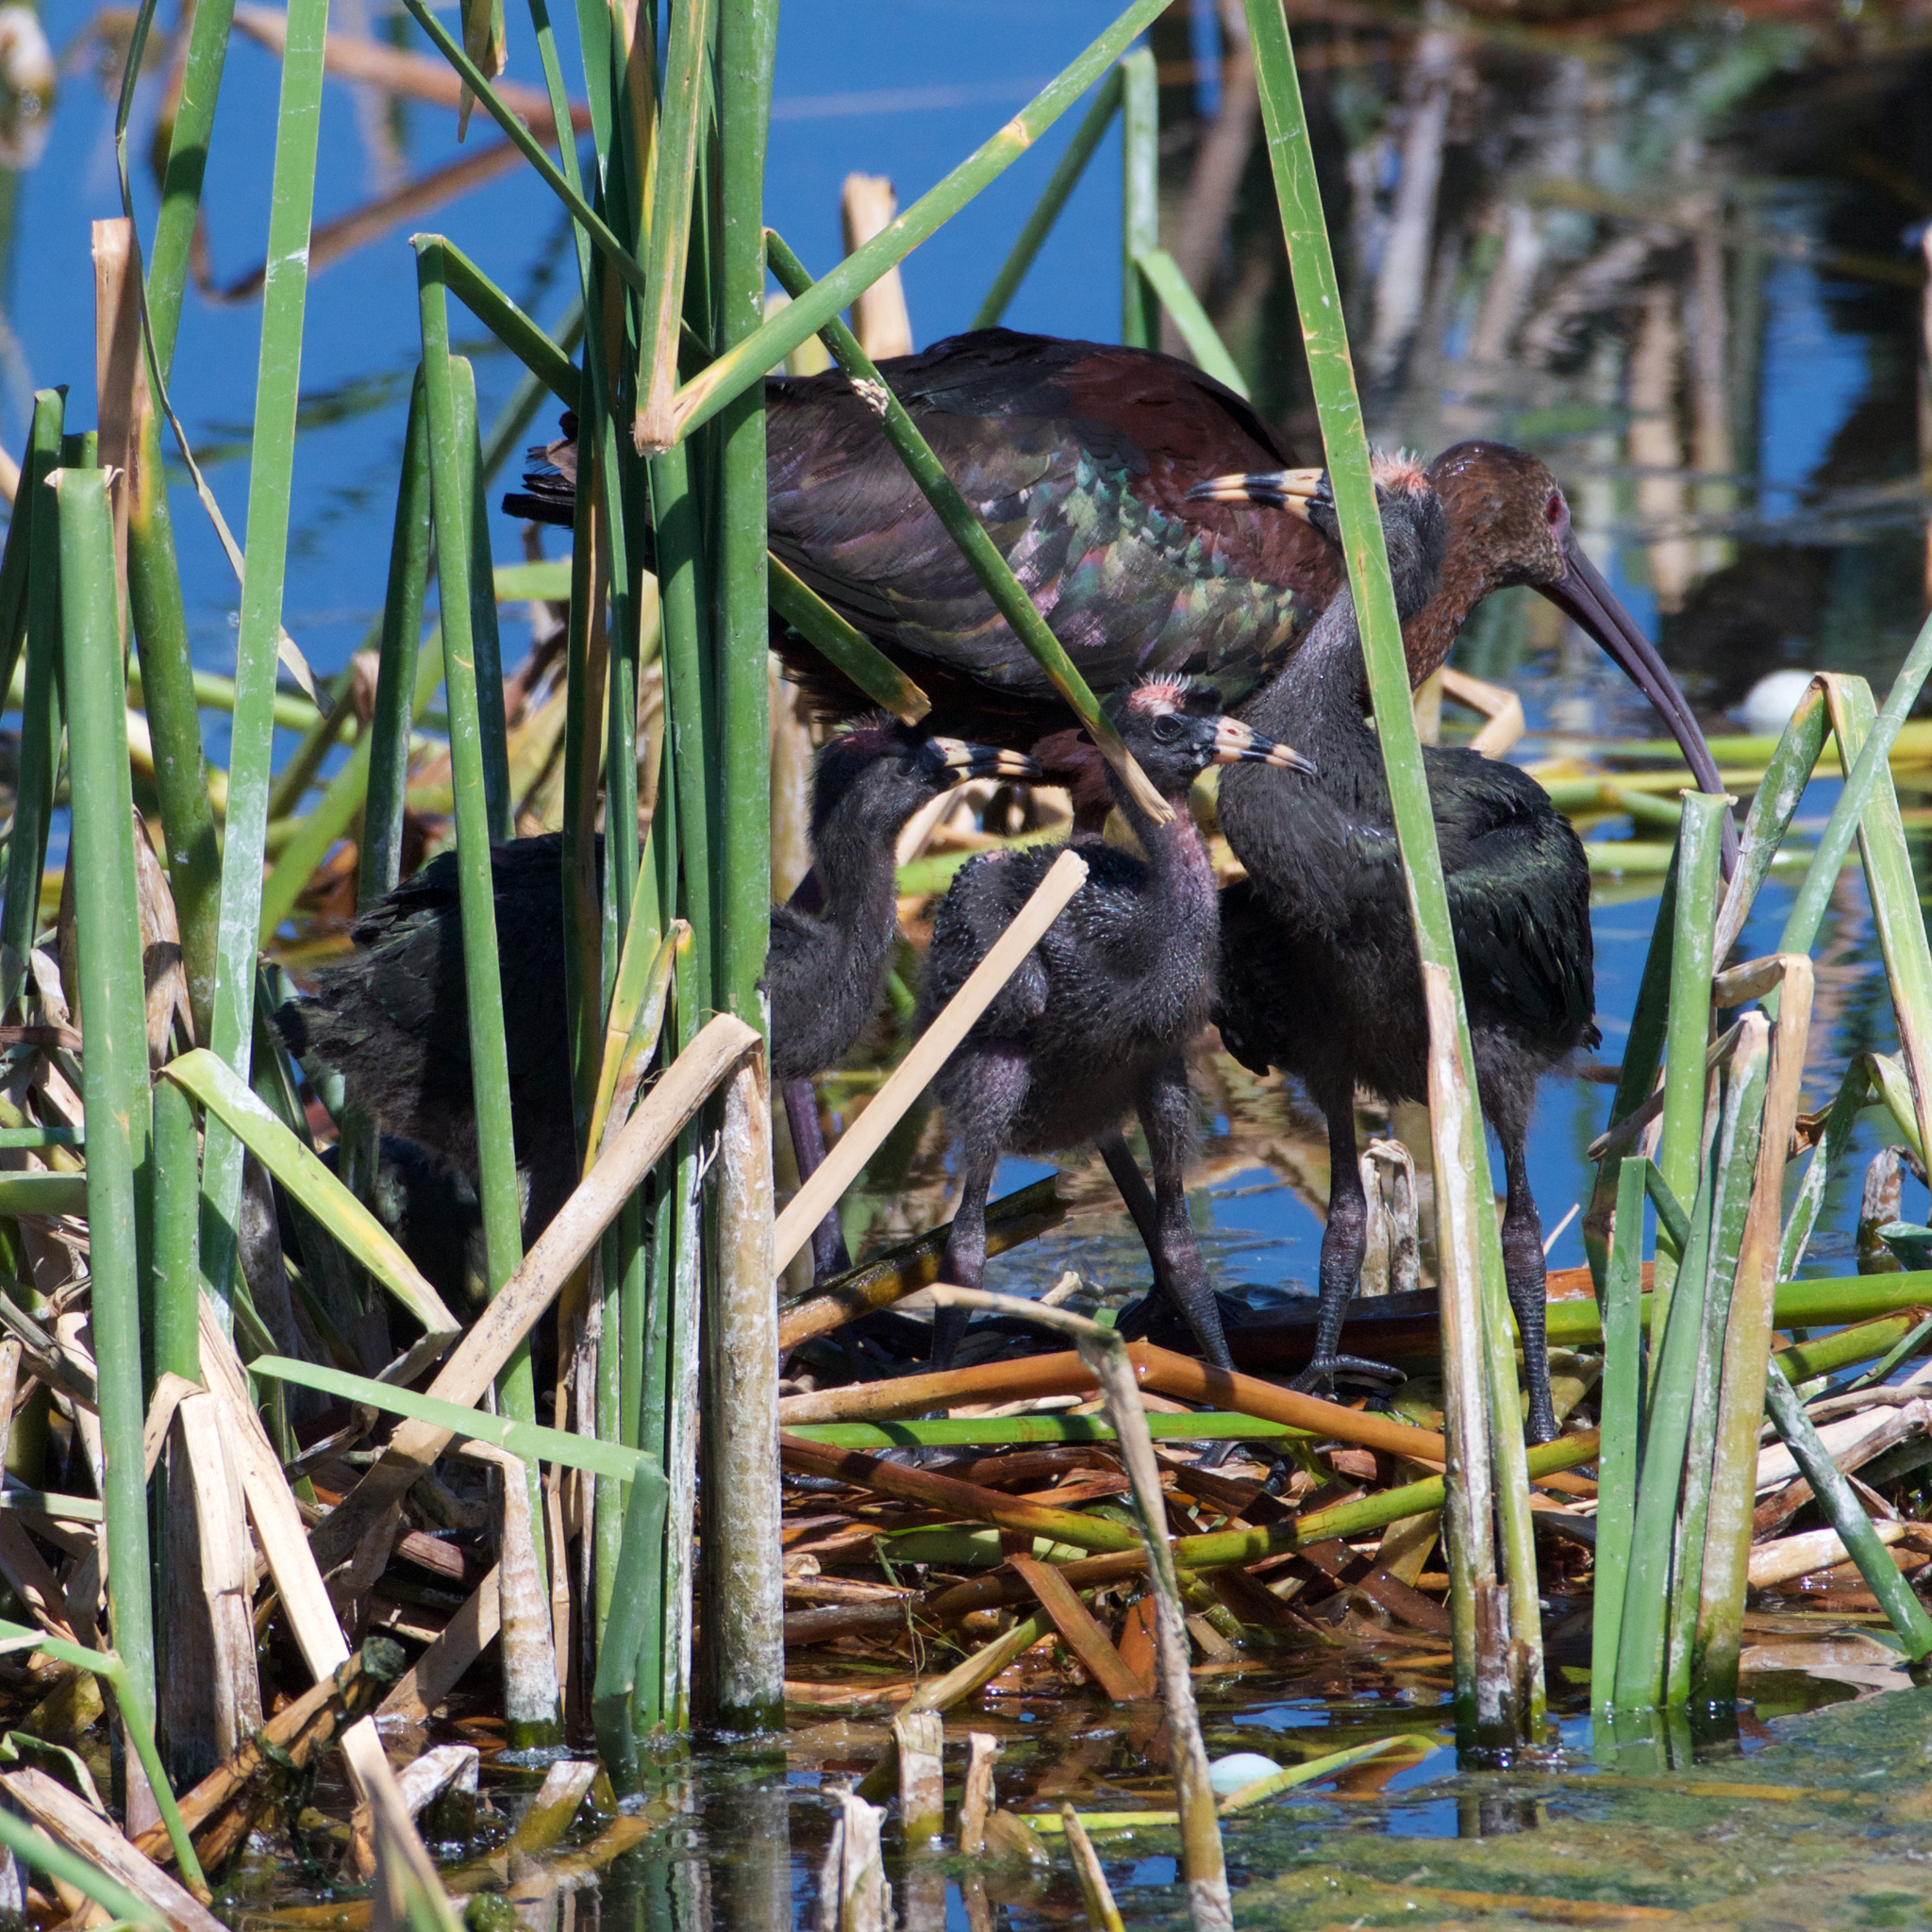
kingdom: Animalia
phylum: Chordata
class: Aves
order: Pelecaniformes
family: Threskiornithidae
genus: Plegadis
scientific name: Plegadis chihi
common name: White-faced ibis
